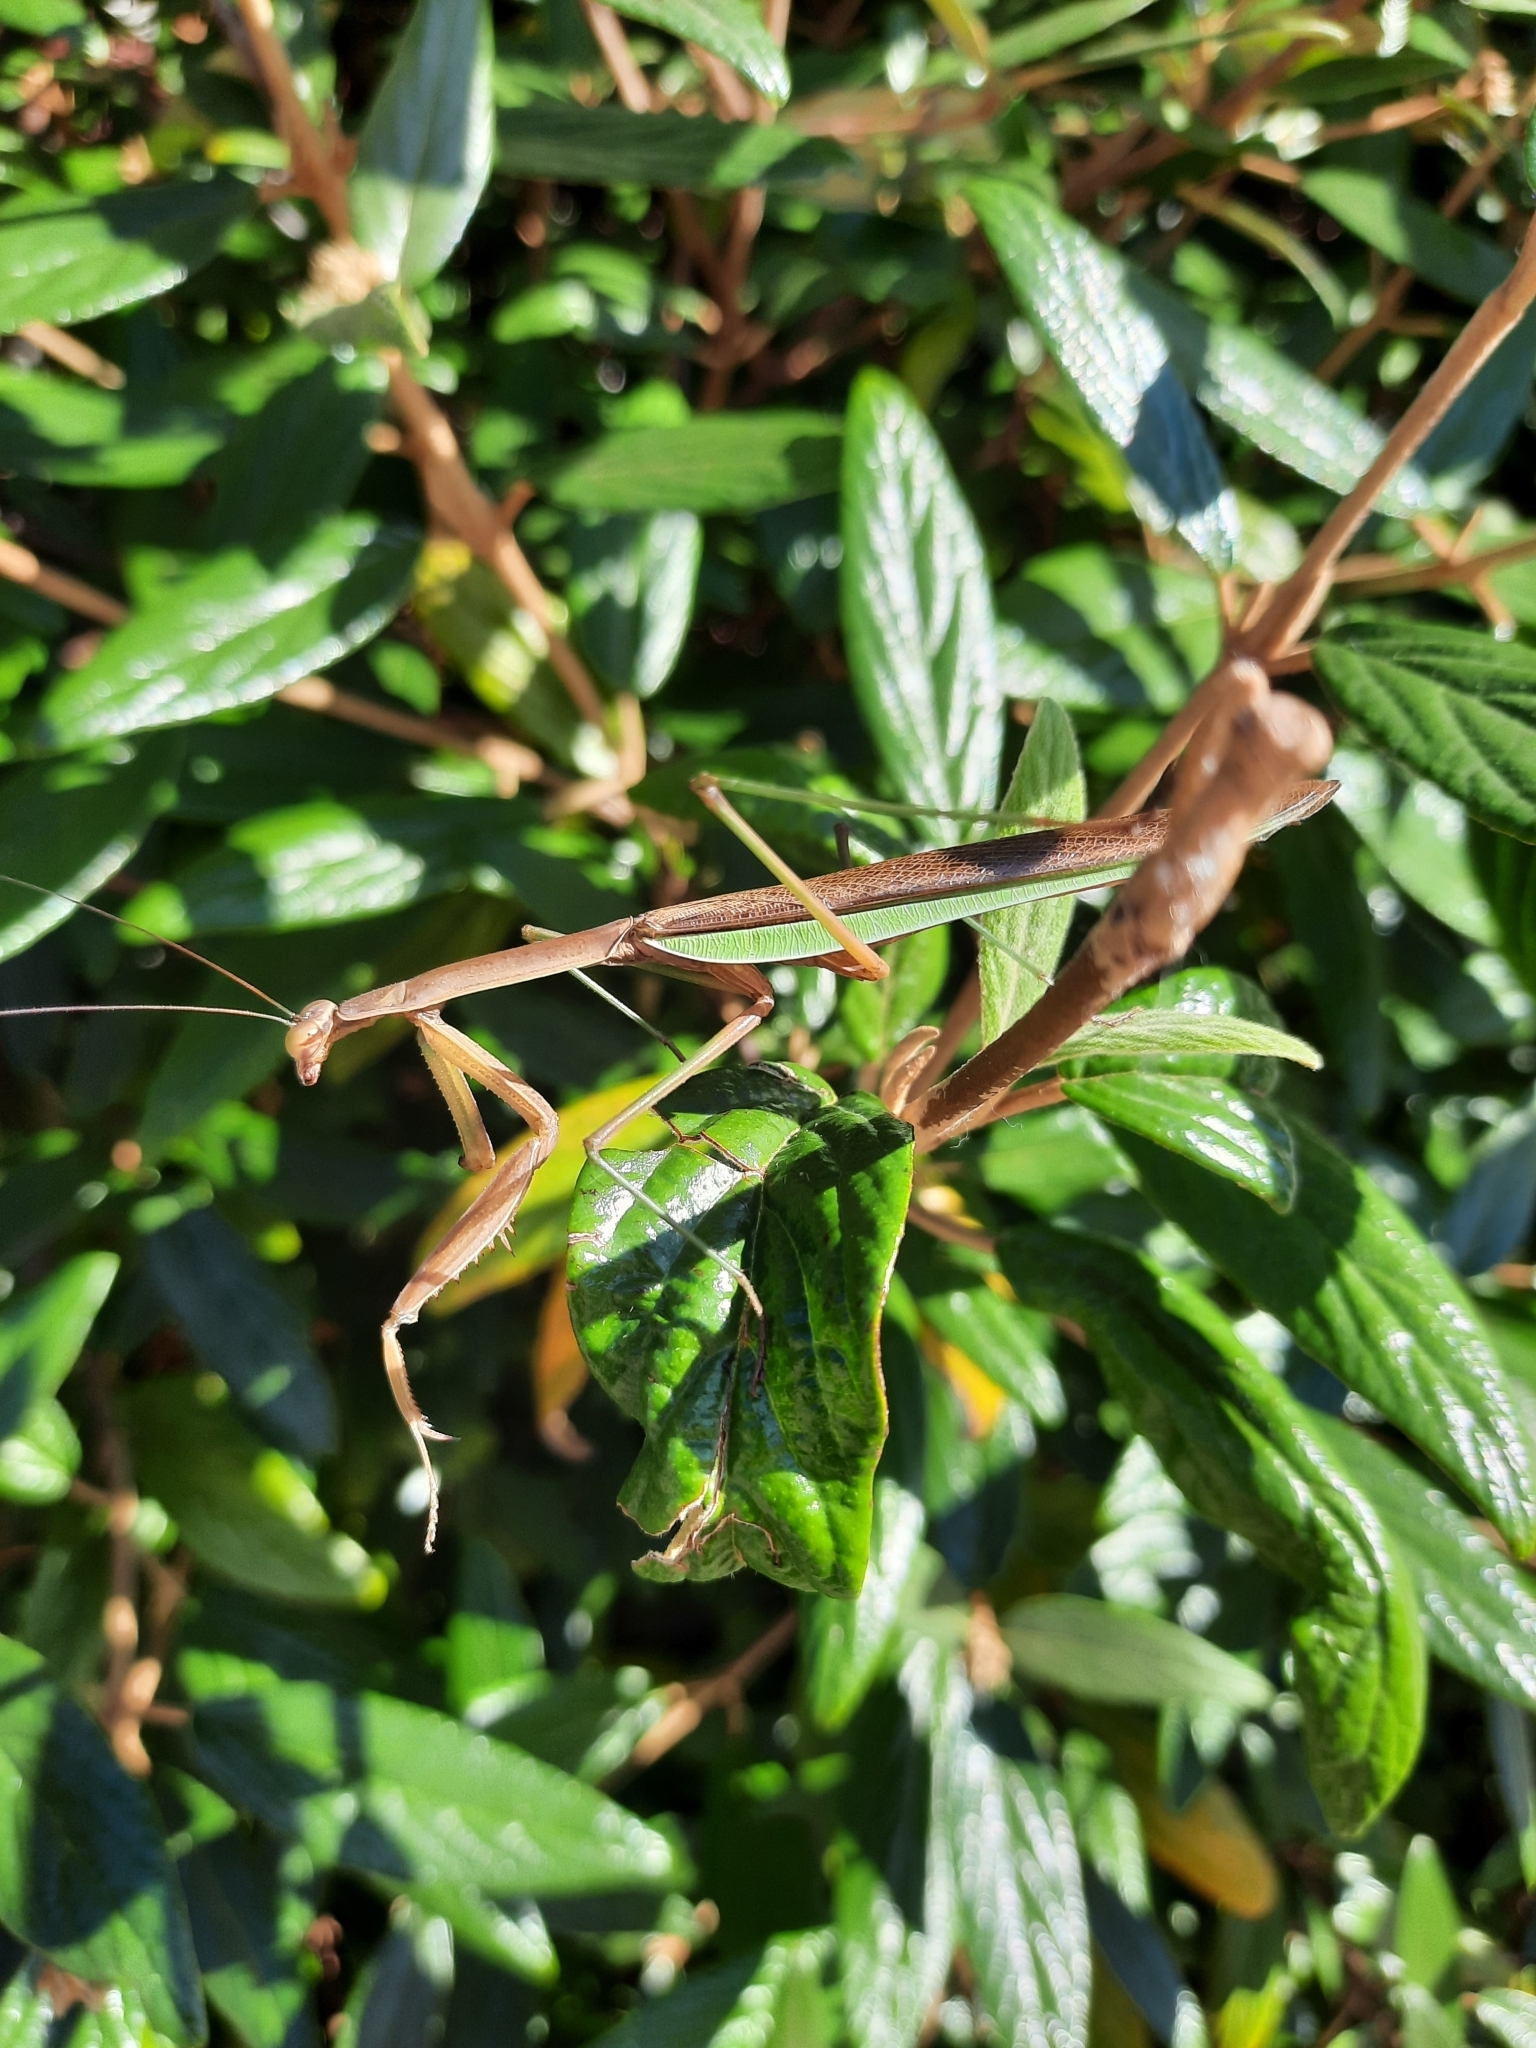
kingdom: Animalia
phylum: Arthropoda
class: Insecta
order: Mantodea
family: Mantidae
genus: Tenodera
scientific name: Tenodera sinensis
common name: Chinese mantis
